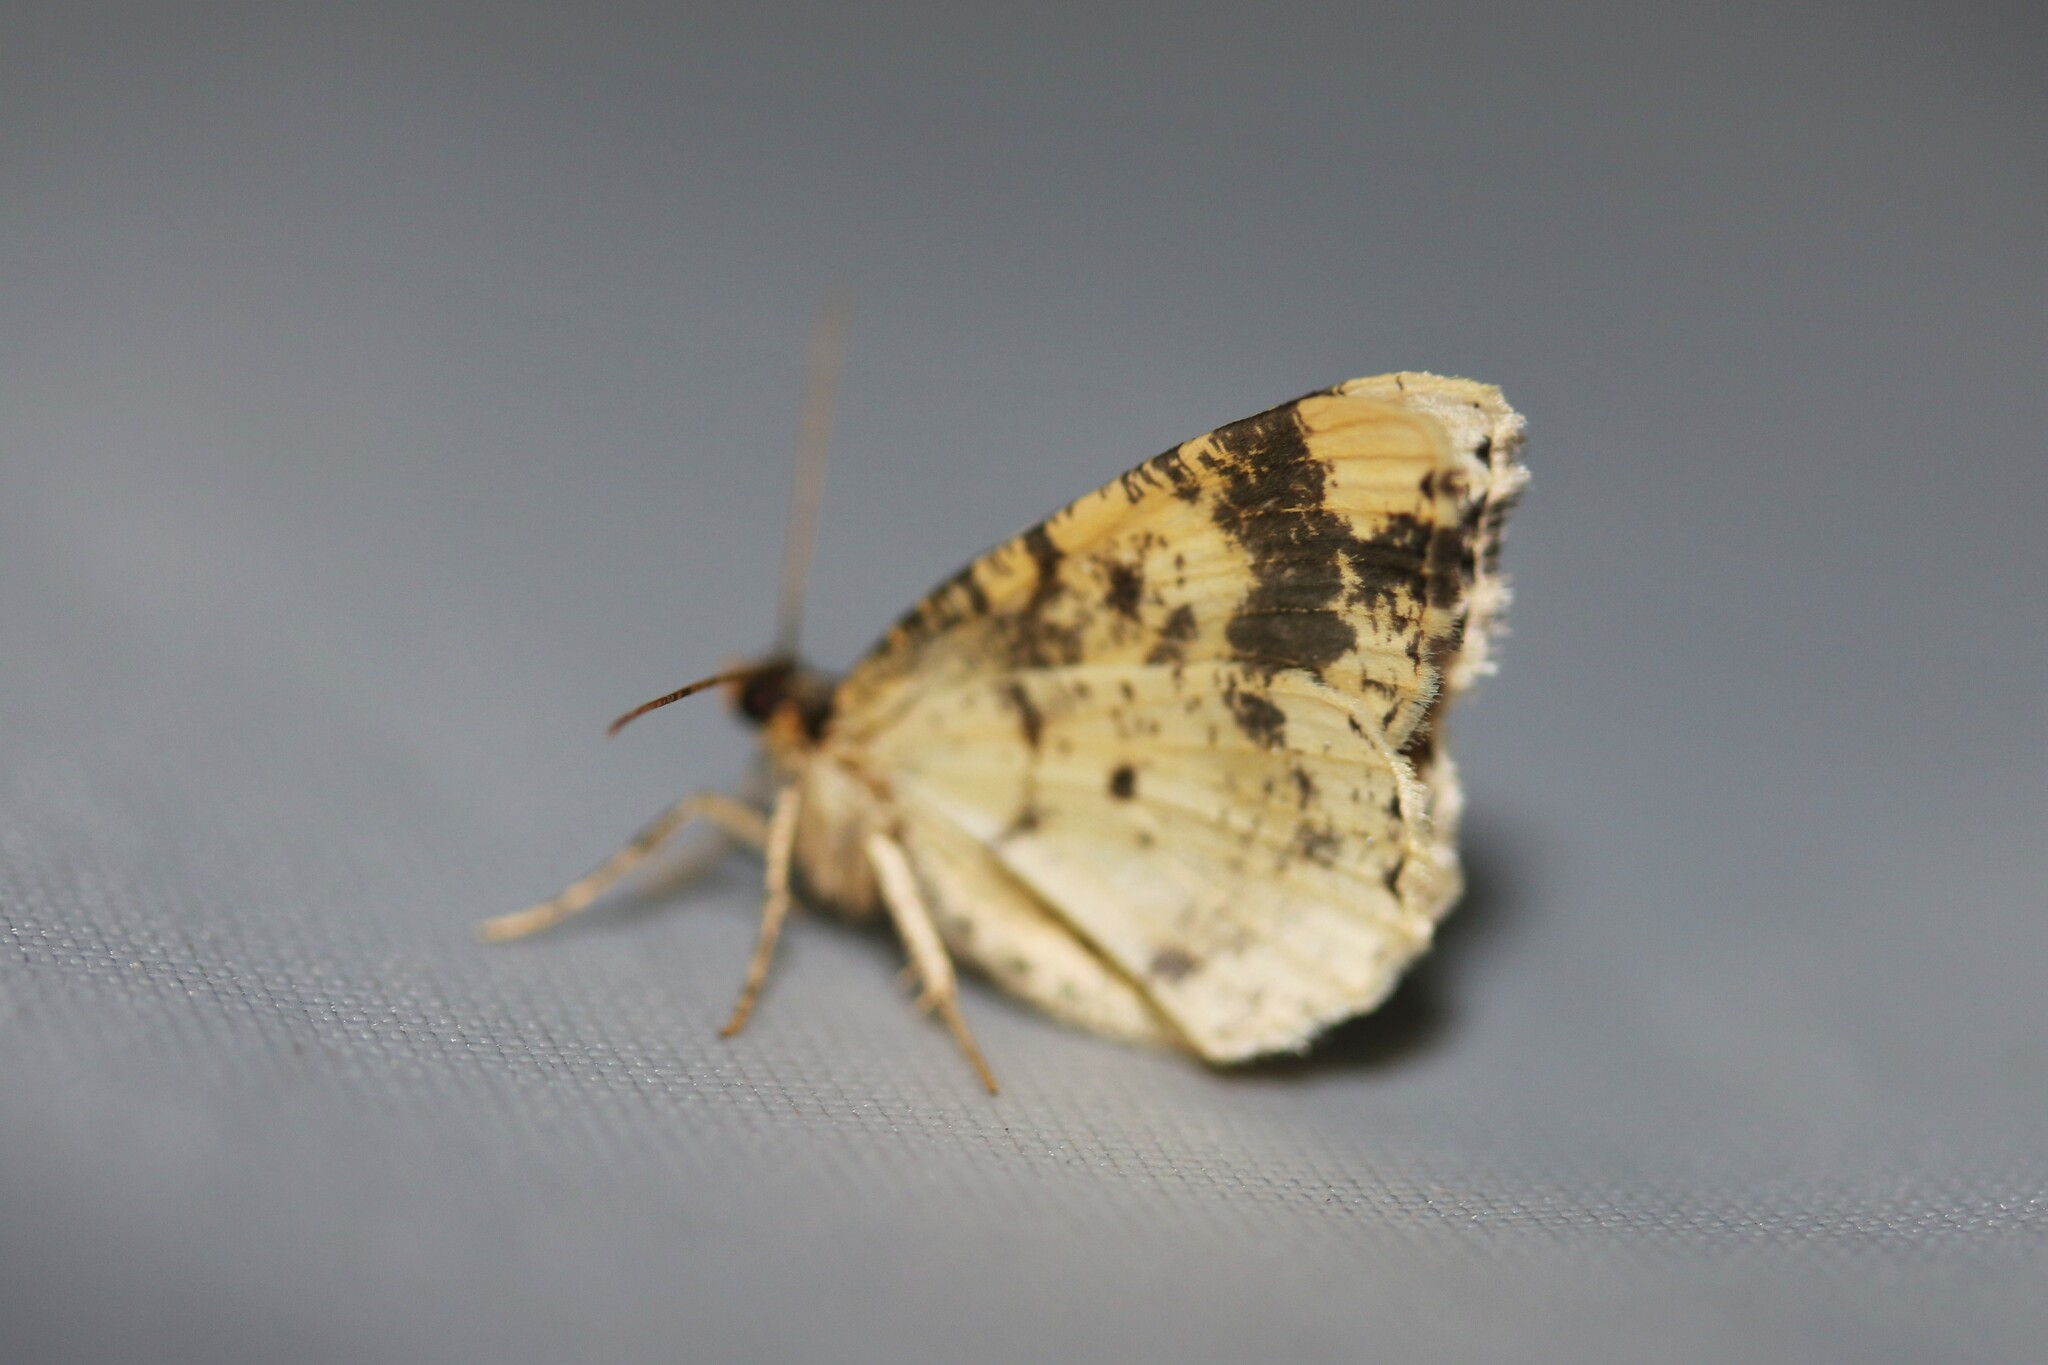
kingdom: Animalia
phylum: Arthropoda
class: Insecta
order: Lepidoptera
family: Geometridae
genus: Ligdia
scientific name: Ligdia adustata
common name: Scorched carpet
